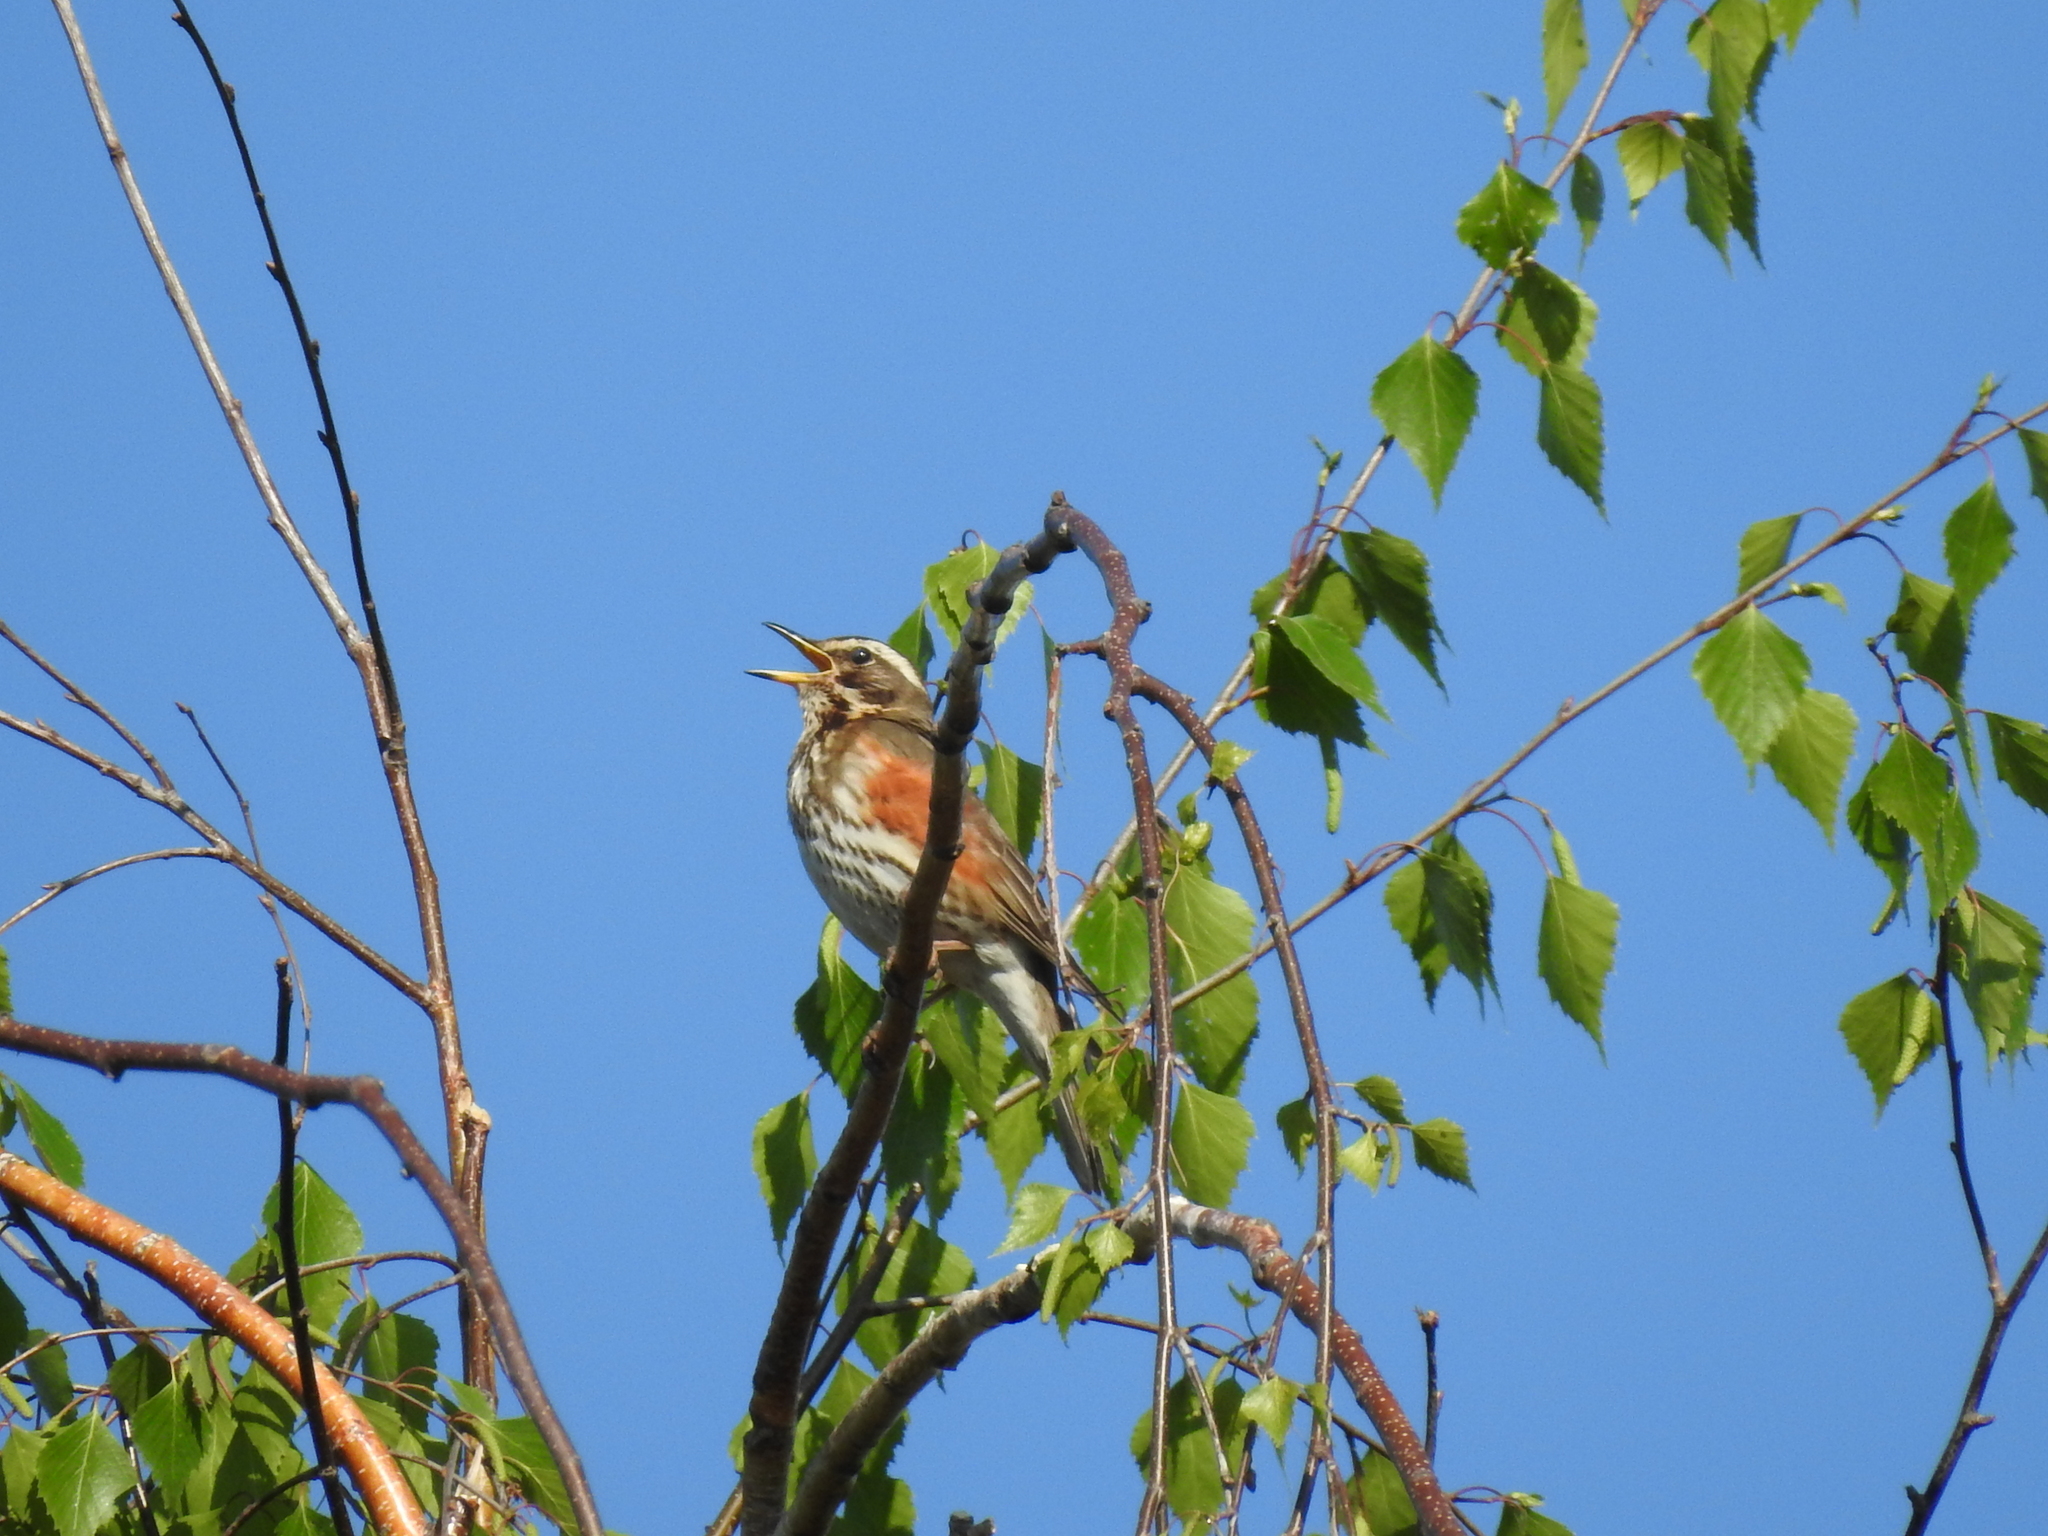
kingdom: Animalia
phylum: Chordata
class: Aves
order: Passeriformes
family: Turdidae
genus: Turdus
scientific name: Turdus iliacus
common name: Redwing
